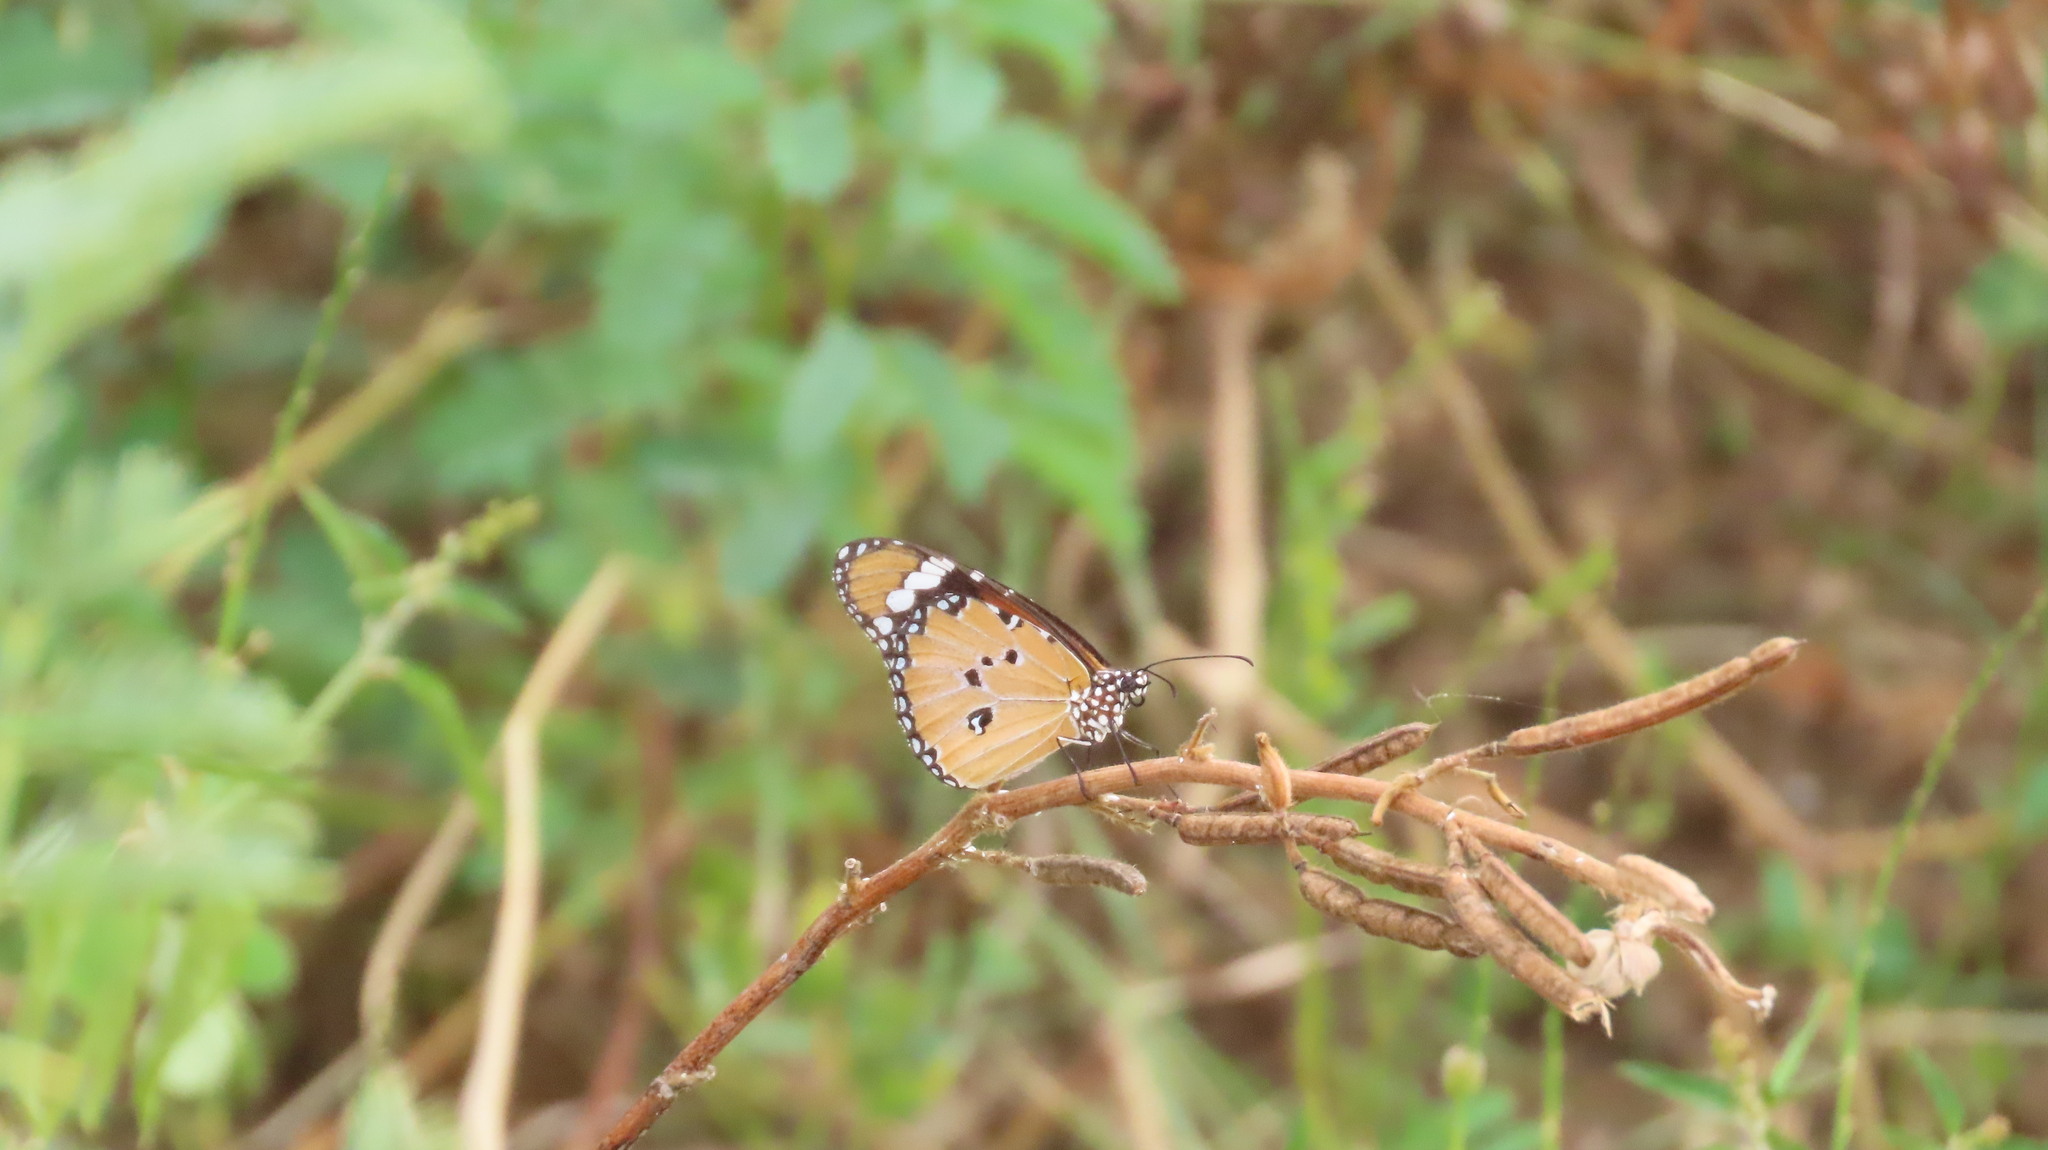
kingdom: Animalia
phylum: Arthropoda
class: Insecta
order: Lepidoptera
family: Nymphalidae
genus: Danaus
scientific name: Danaus chrysippus
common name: Plain tiger
